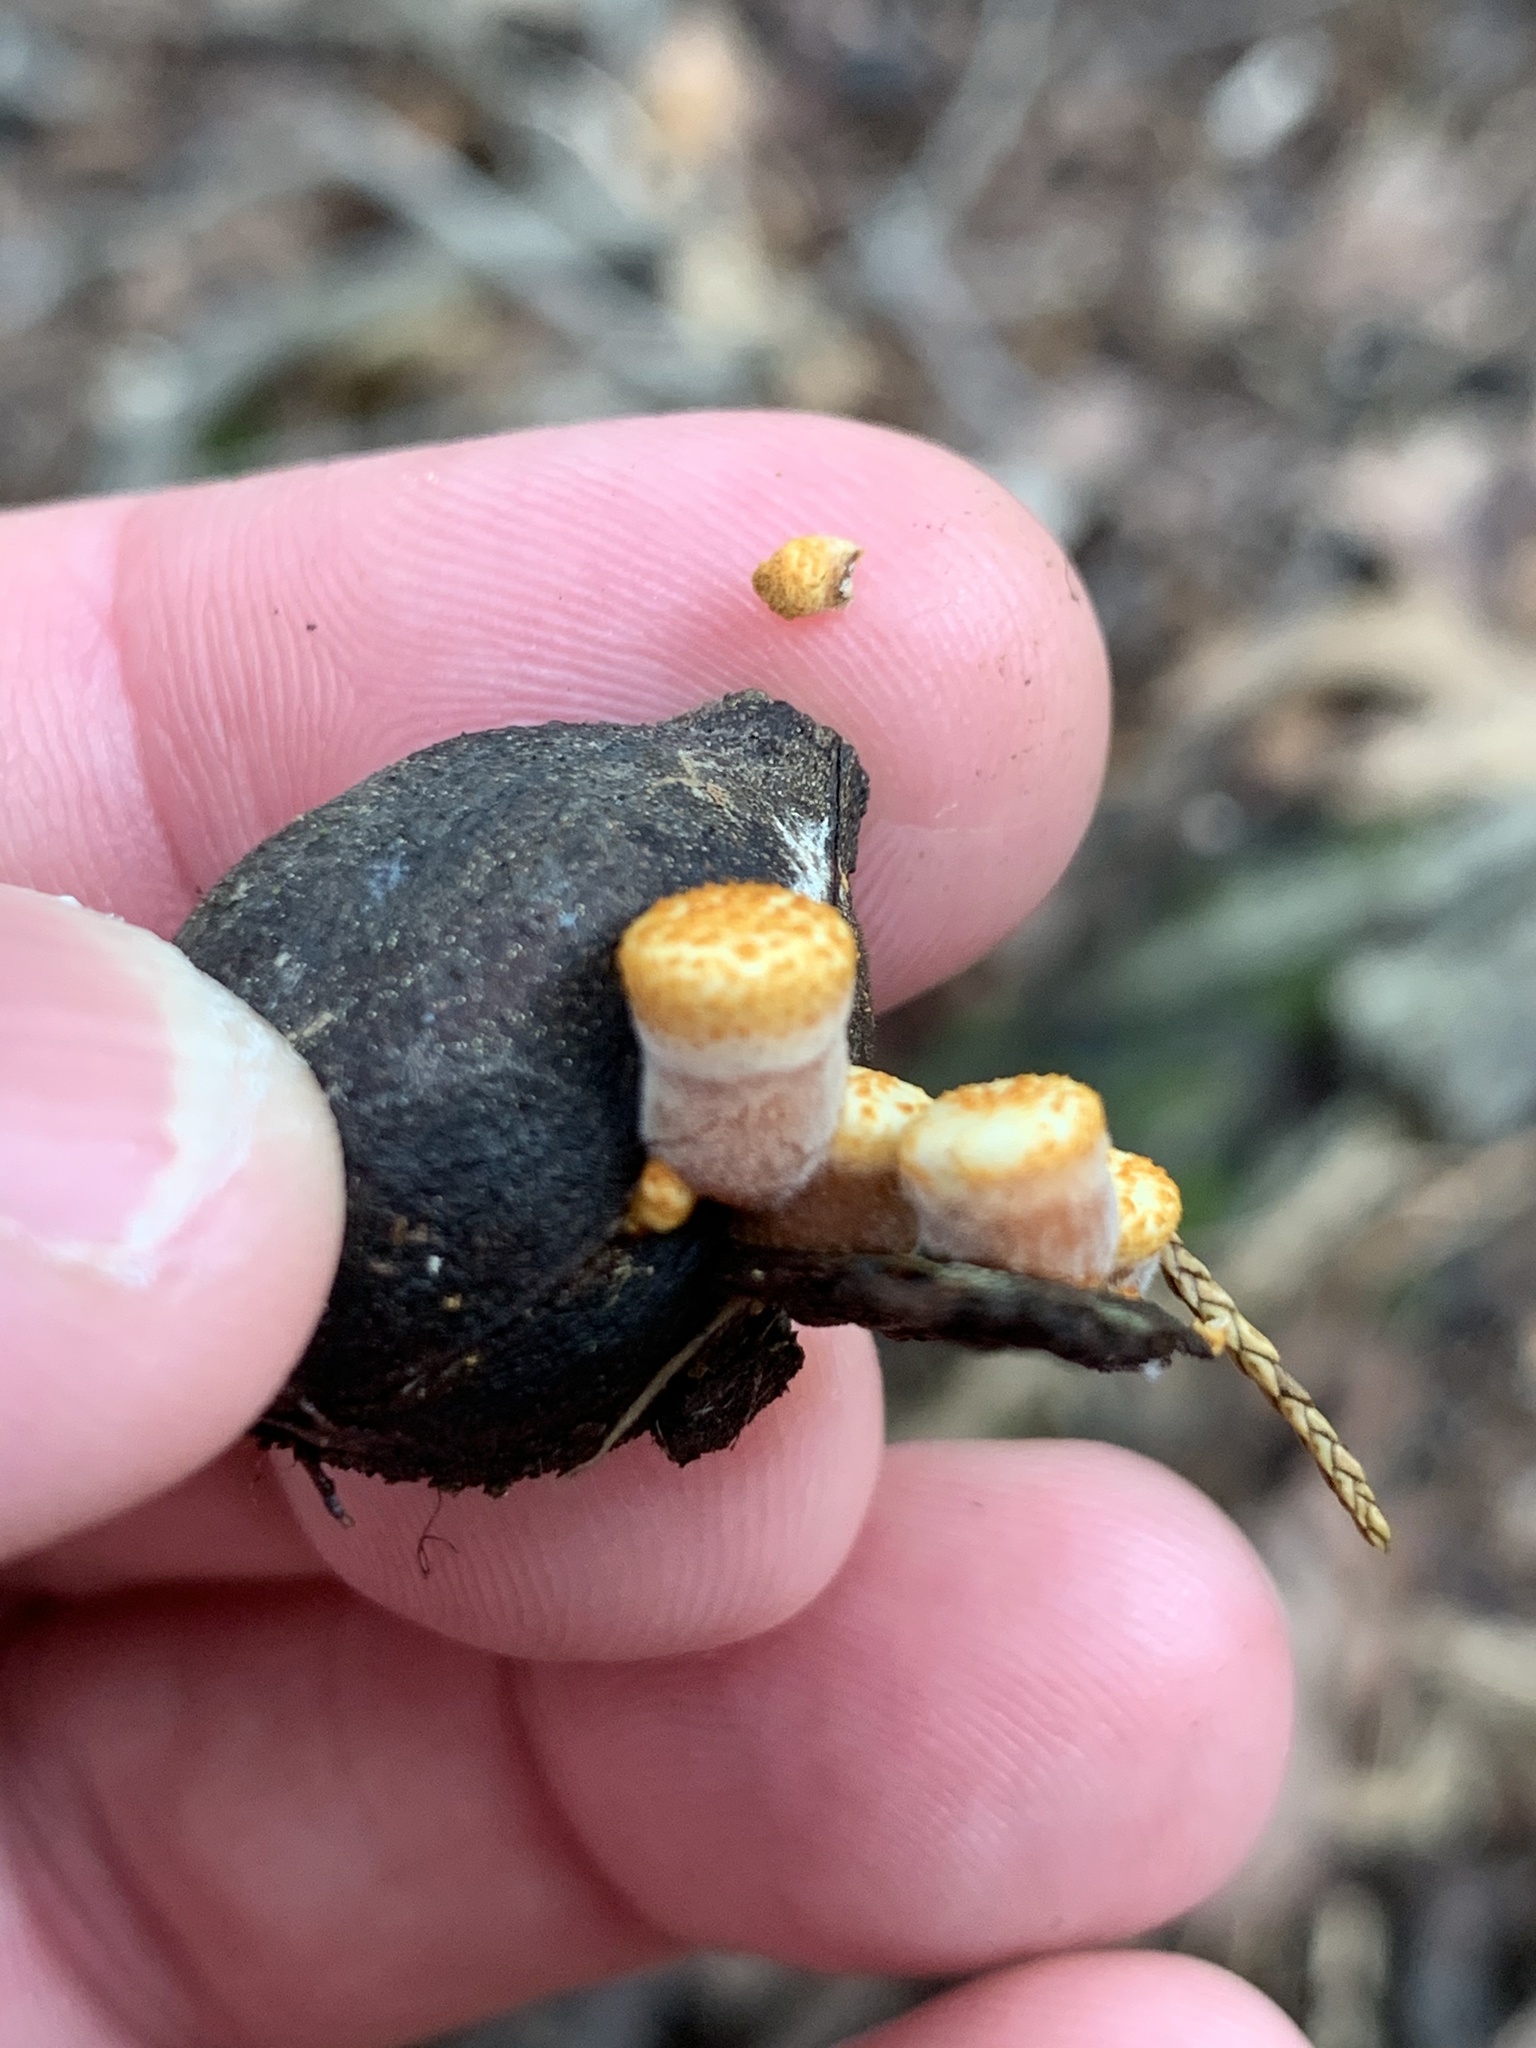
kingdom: Fungi
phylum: Basidiomycota
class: Agaricomycetes
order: Agaricales
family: Nidulariaceae
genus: Crucibulum
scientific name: Crucibulum laeve
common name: Common bird's nest
